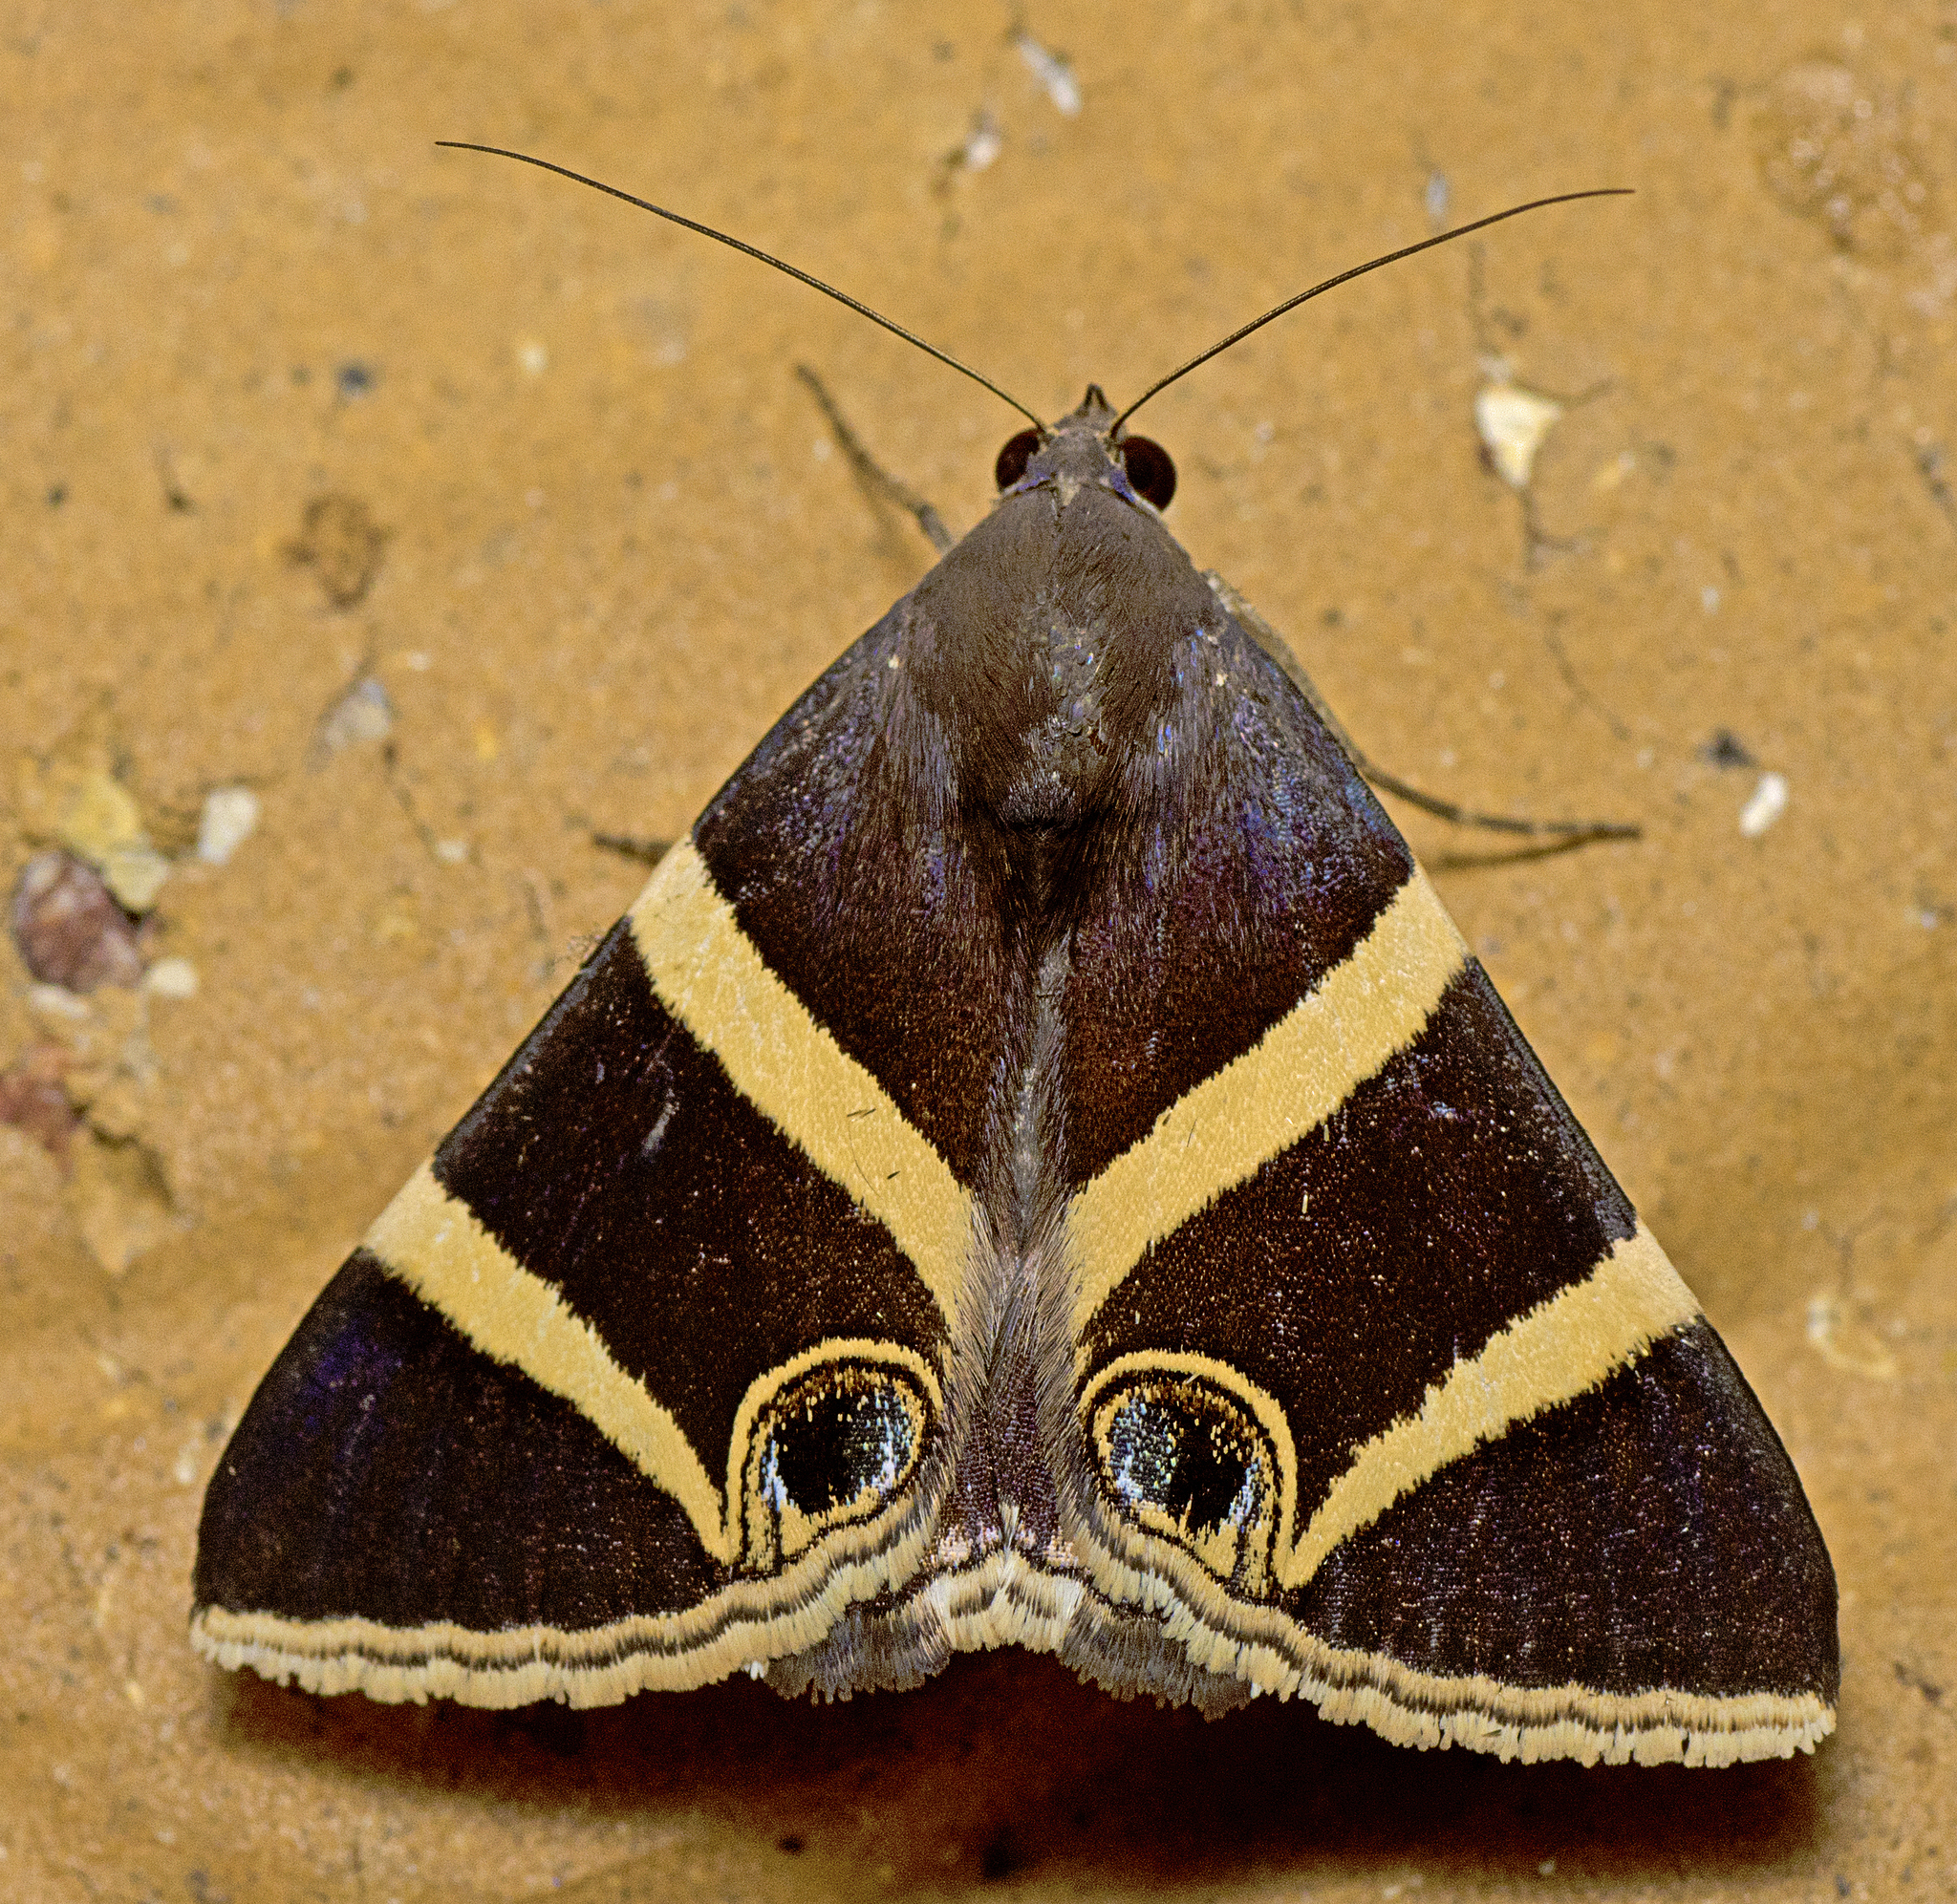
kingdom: Animalia
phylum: Arthropoda
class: Insecta
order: Lepidoptera
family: Erebidae
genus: Grammodes
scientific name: Grammodes ocellata
